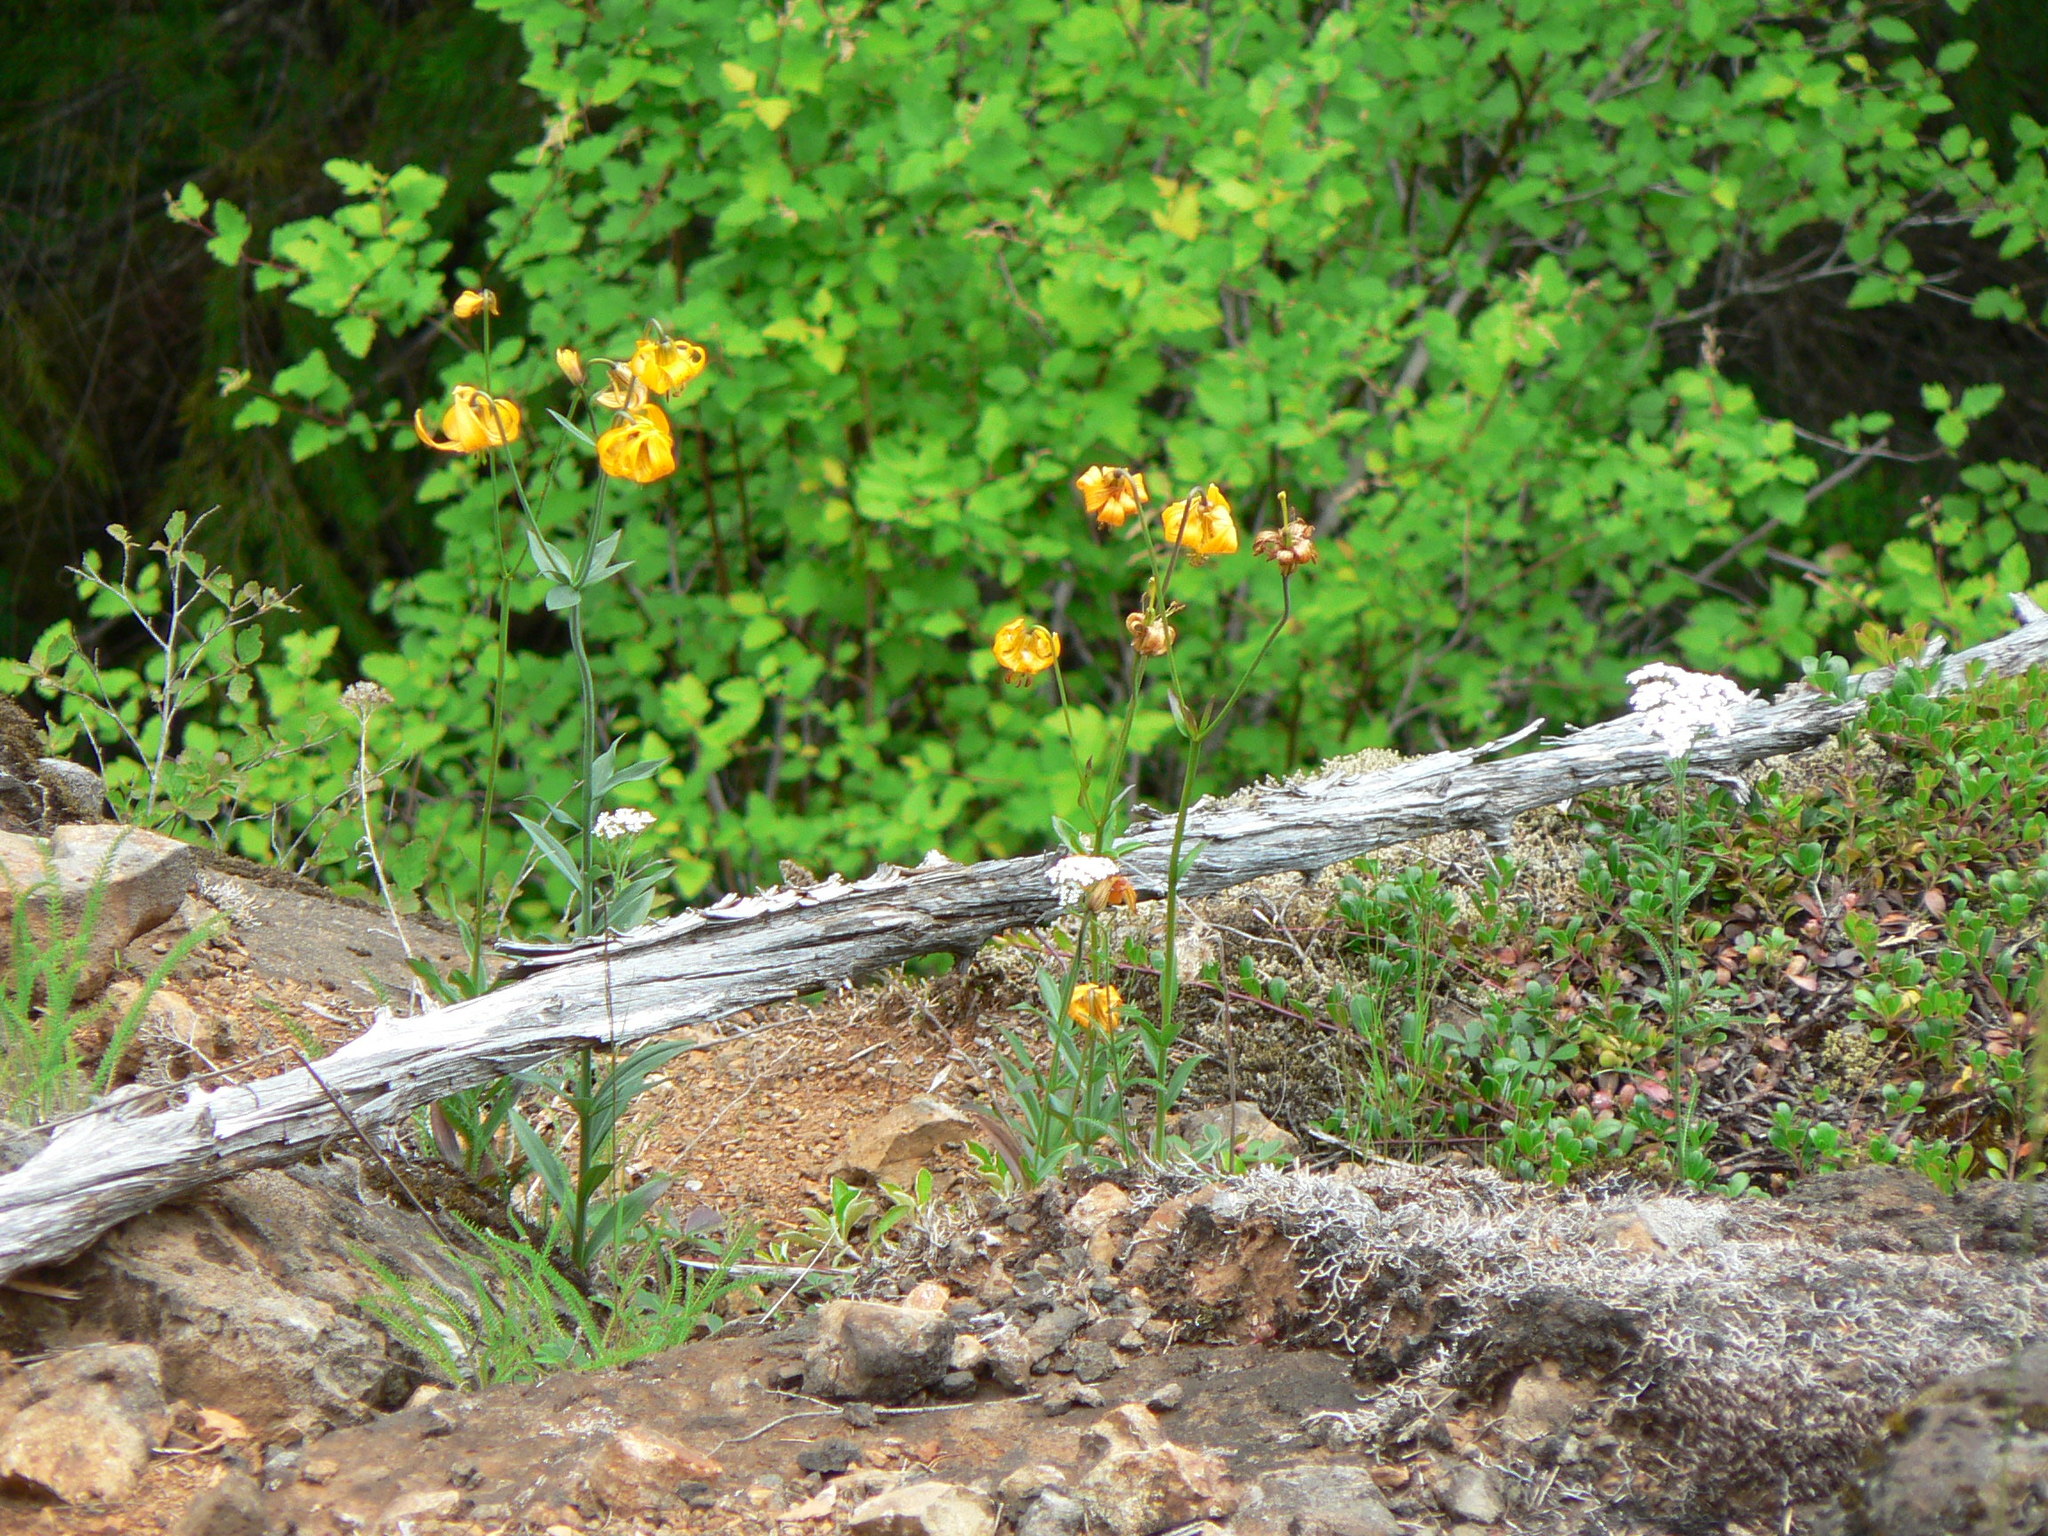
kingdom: Plantae
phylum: Tracheophyta
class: Liliopsida
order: Liliales
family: Liliaceae
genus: Lilium
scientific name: Lilium columbianum
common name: Columbia lily
